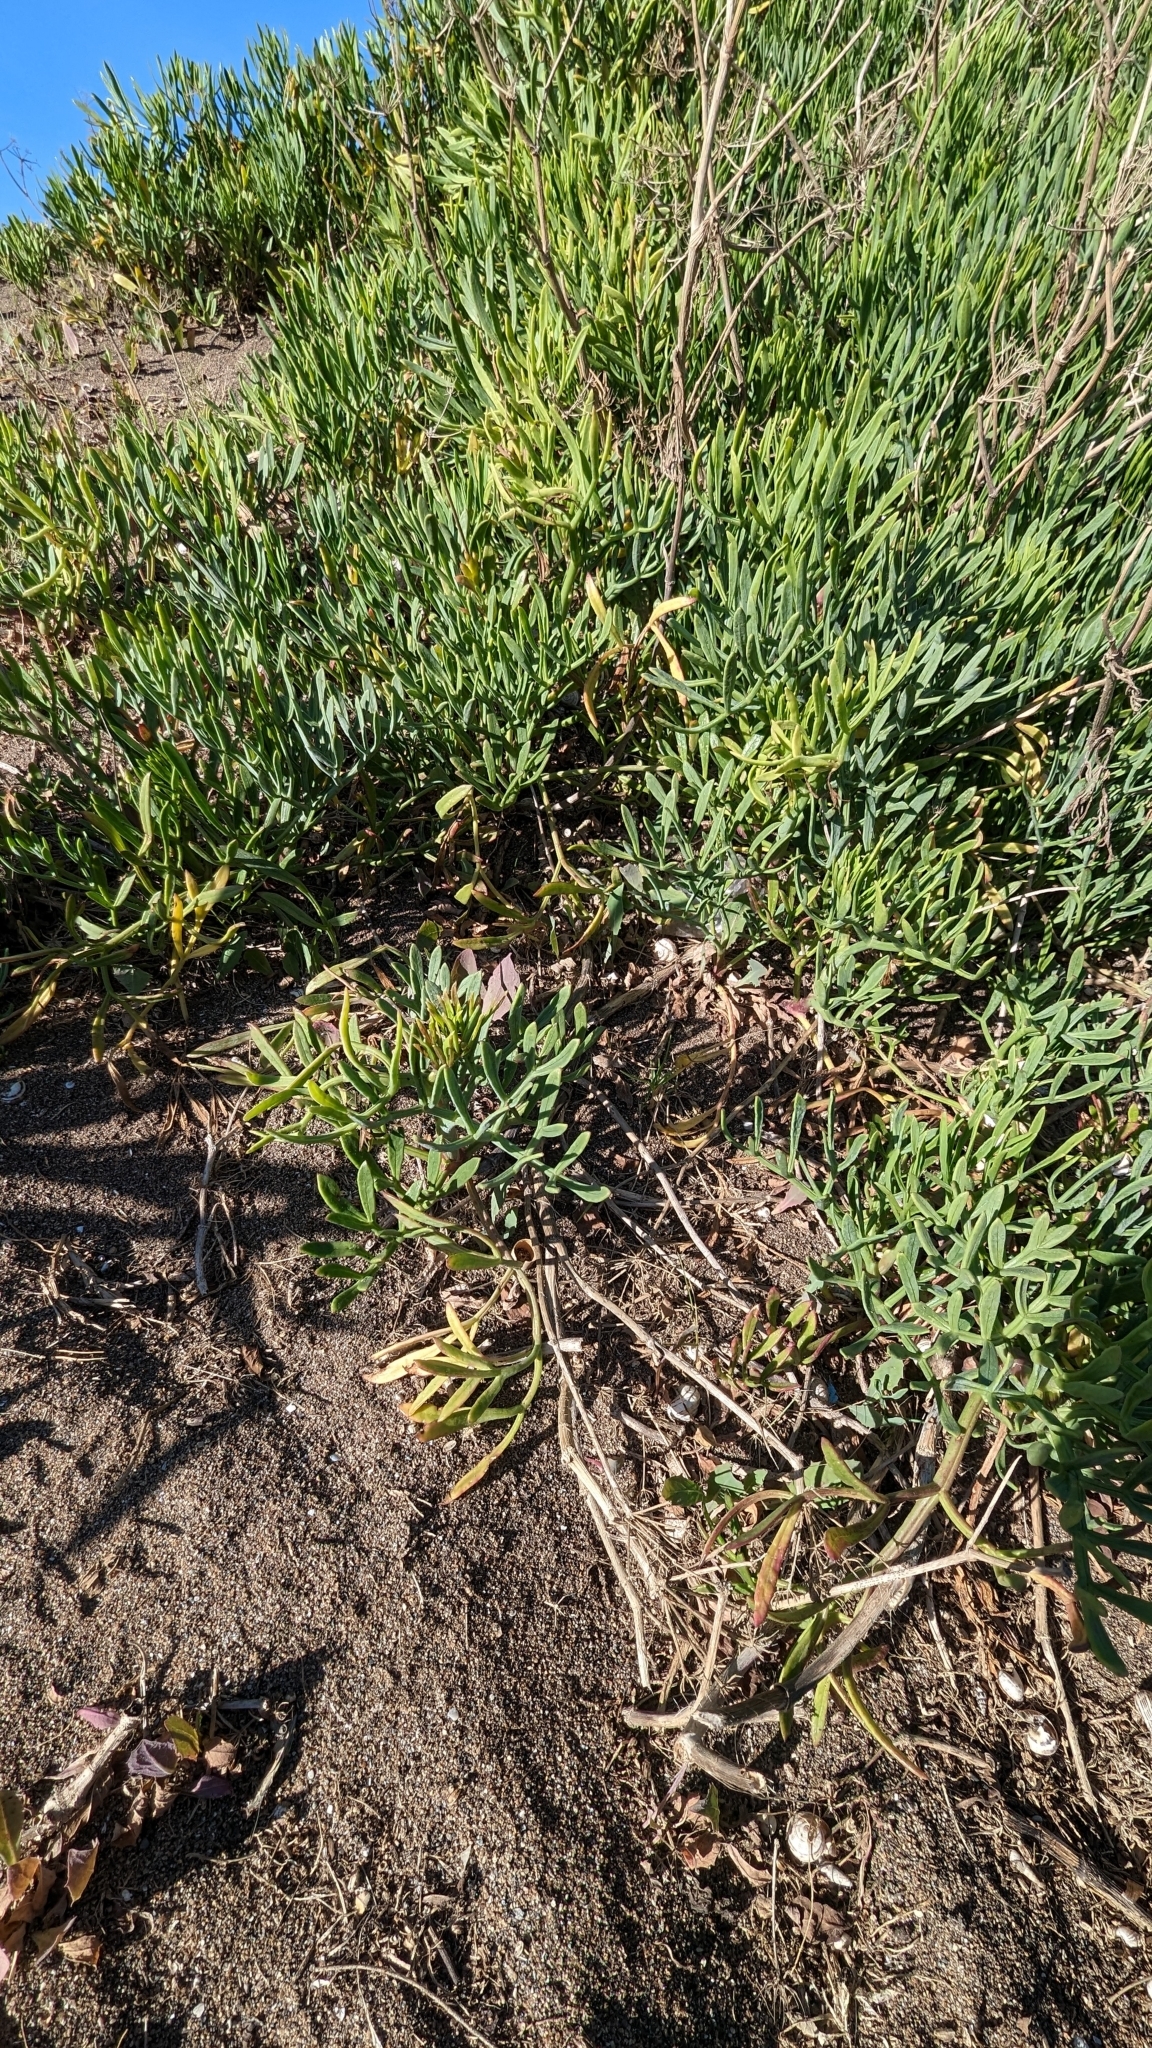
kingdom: Plantae
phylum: Tracheophyta
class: Magnoliopsida
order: Apiales
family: Apiaceae
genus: Crithmum
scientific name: Crithmum maritimum
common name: Rock samphire
